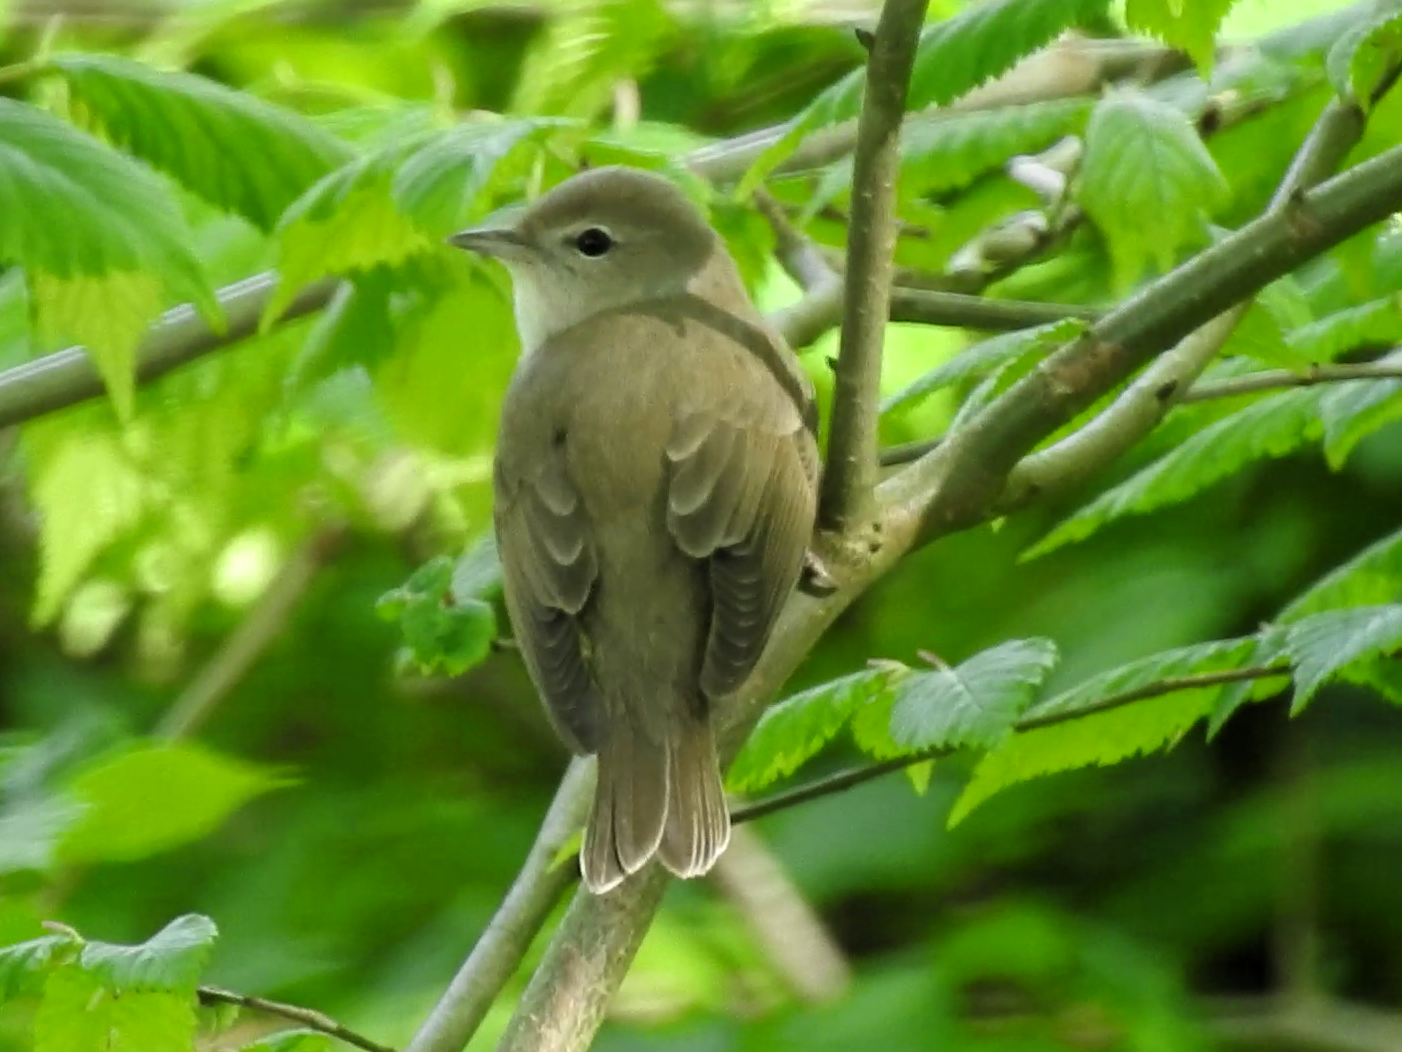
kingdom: Animalia
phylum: Chordata
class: Aves
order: Passeriformes
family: Sylviidae
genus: Sylvia
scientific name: Sylvia borin
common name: Garden warbler
